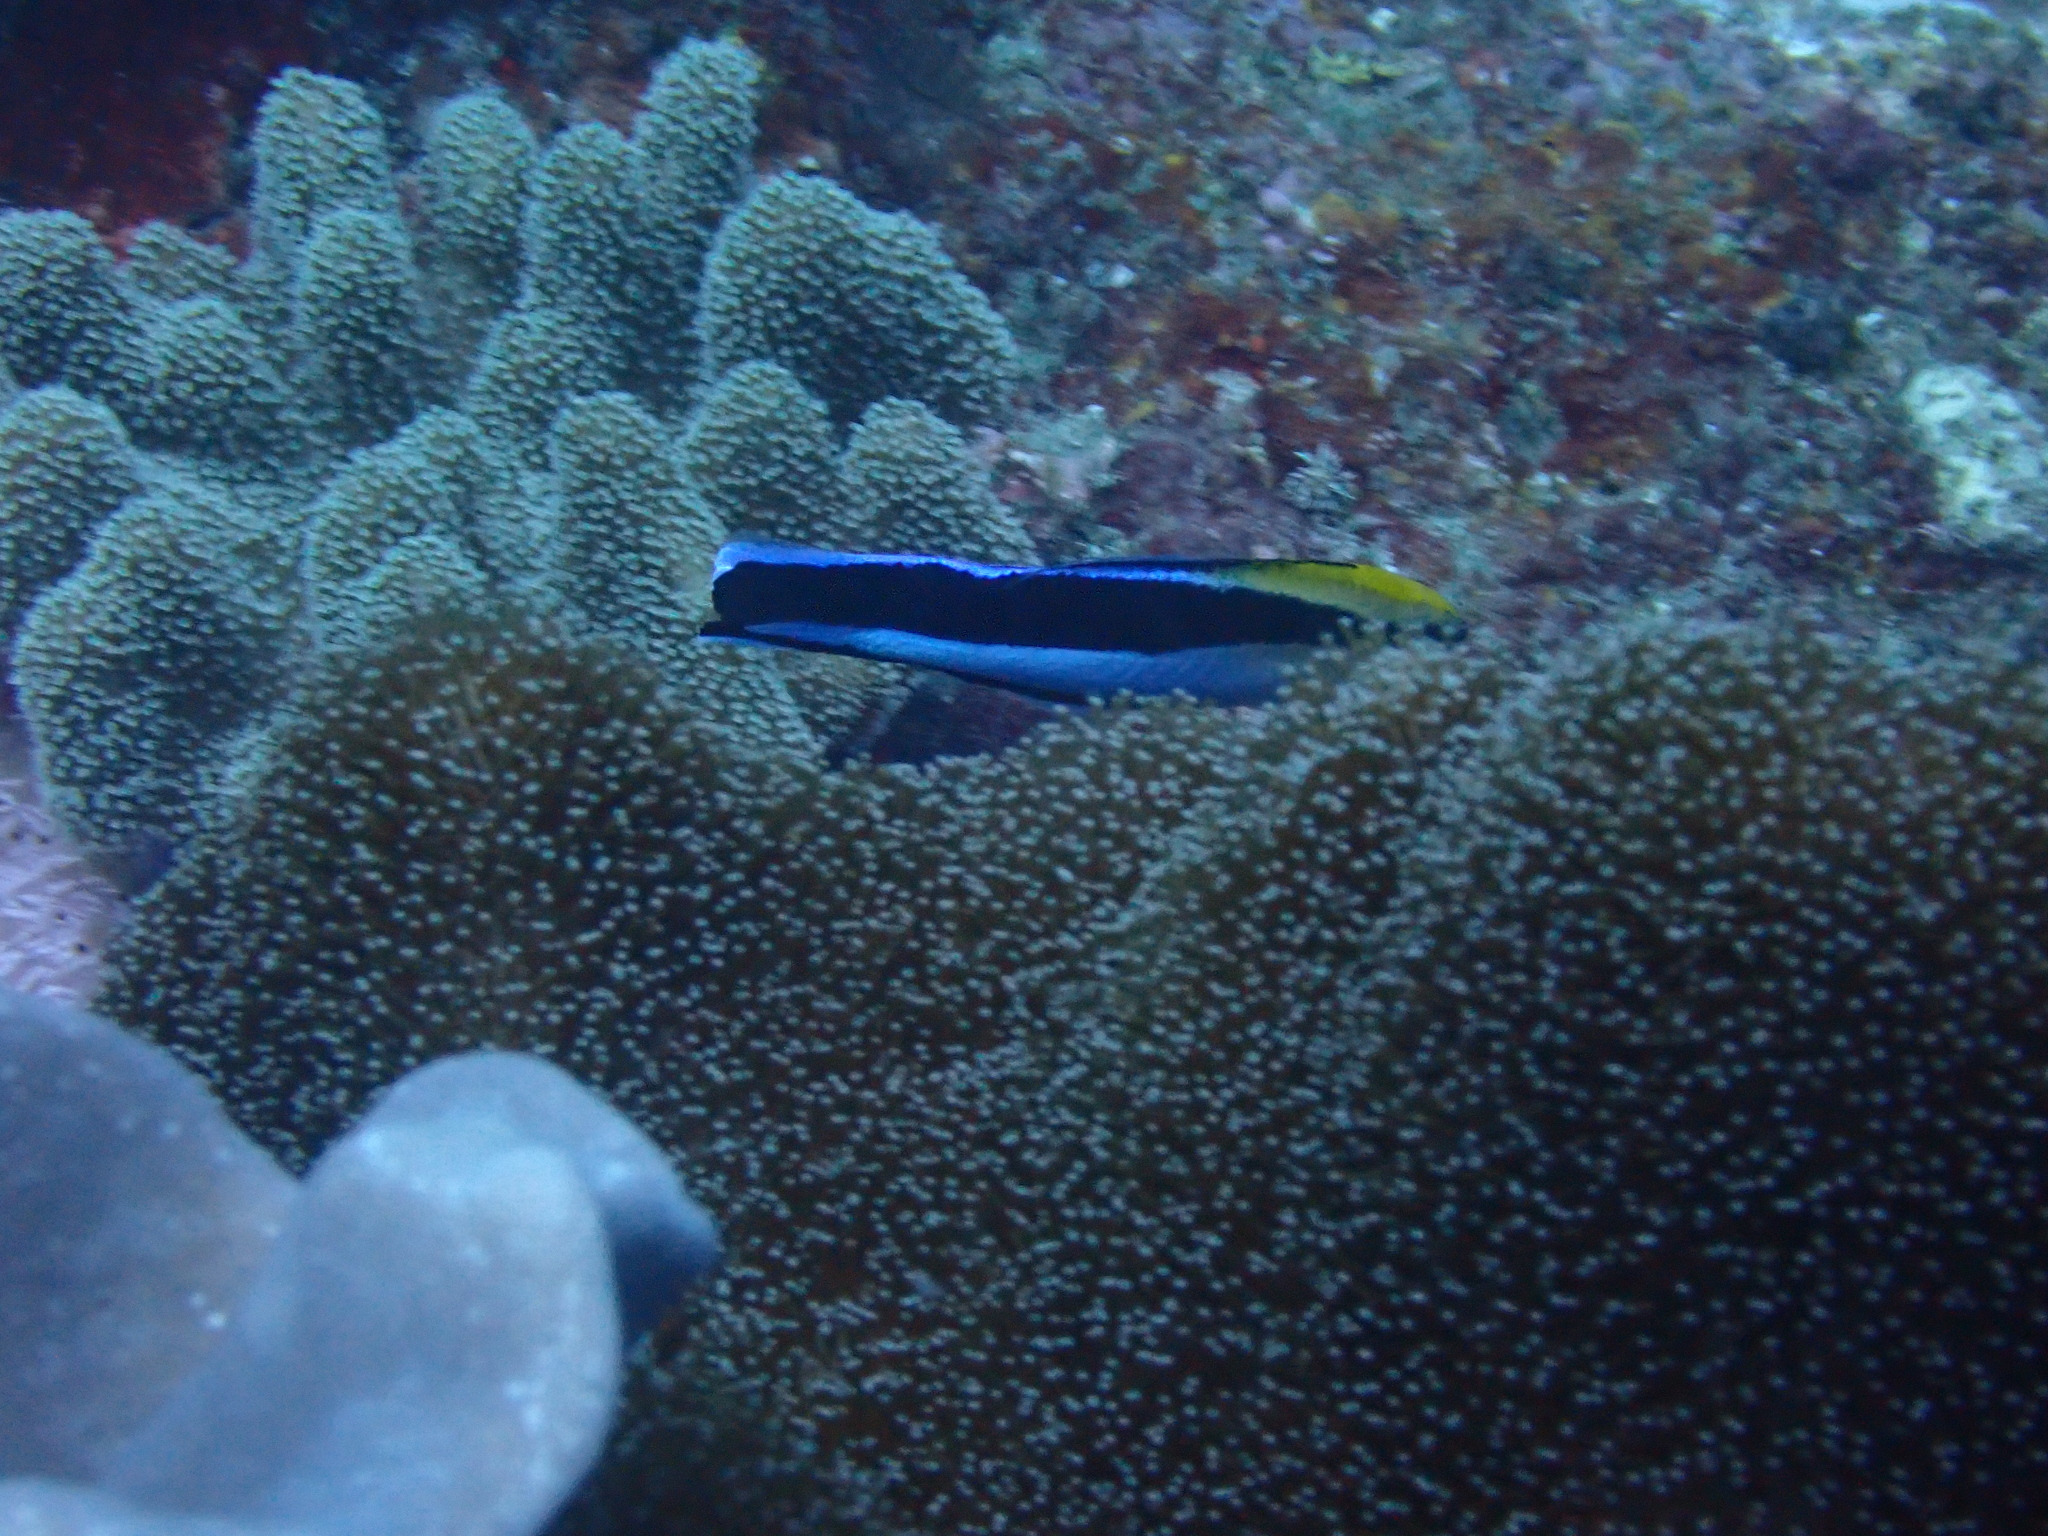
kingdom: Animalia
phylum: Chordata
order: Perciformes
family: Labridae
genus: Labroides
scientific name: Labroides dimidiatus
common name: Blue diesel wrasse
